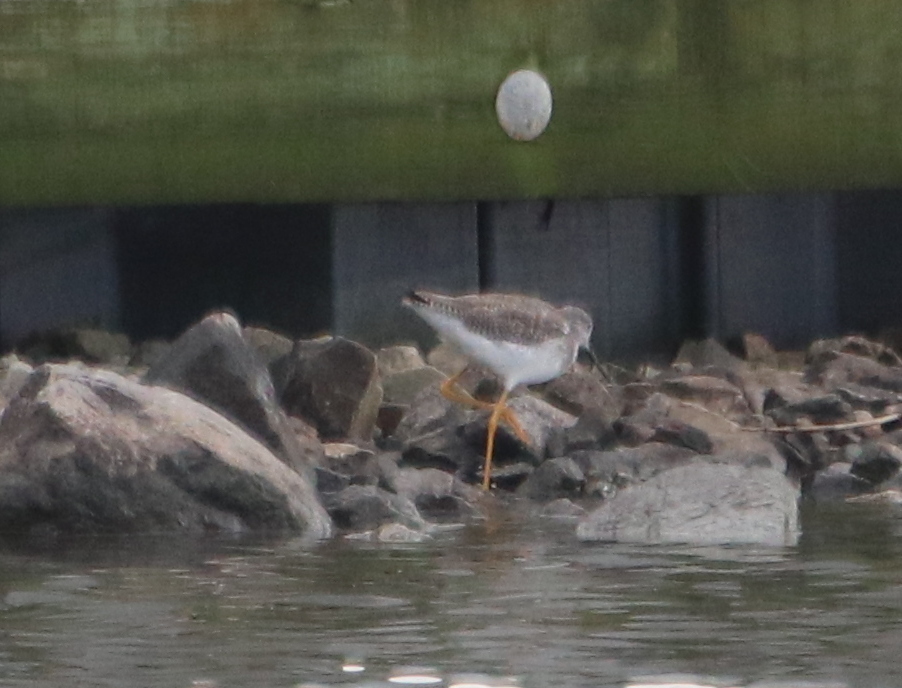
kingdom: Animalia
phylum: Chordata
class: Aves
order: Charadriiformes
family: Scolopacidae
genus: Tringa
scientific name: Tringa melanoleuca
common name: Greater yellowlegs
